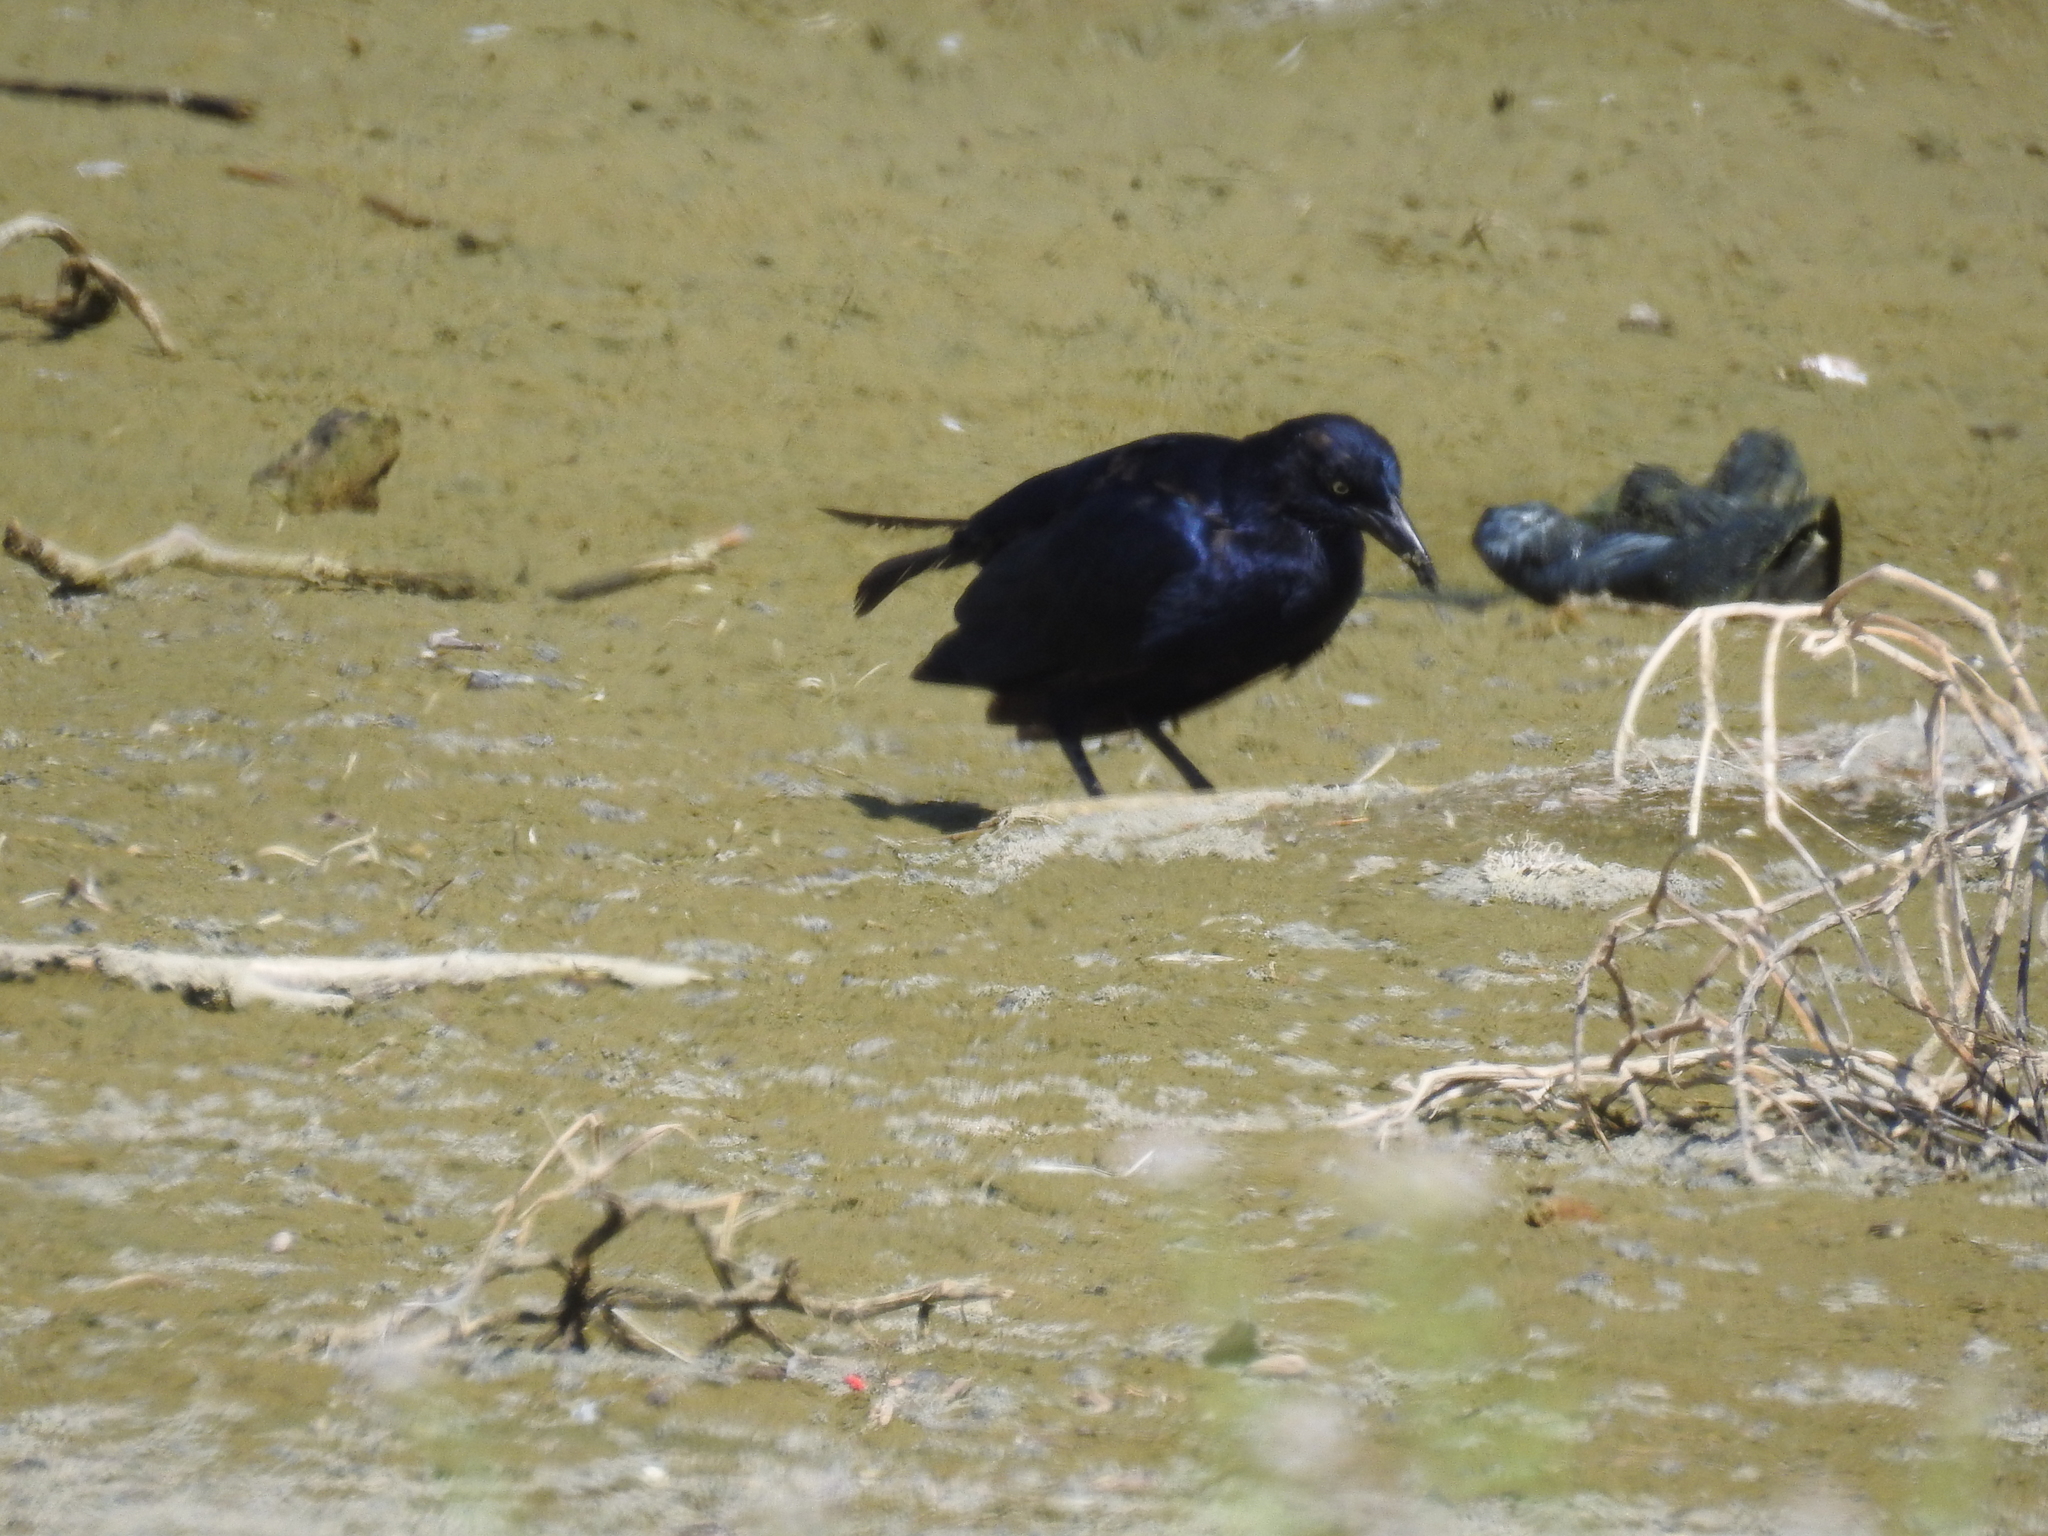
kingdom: Animalia
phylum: Chordata
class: Aves
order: Passeriformes
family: Icteridae
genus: Quiscalus
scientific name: Quiscalus mexicanus
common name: Great-tailed grackle
